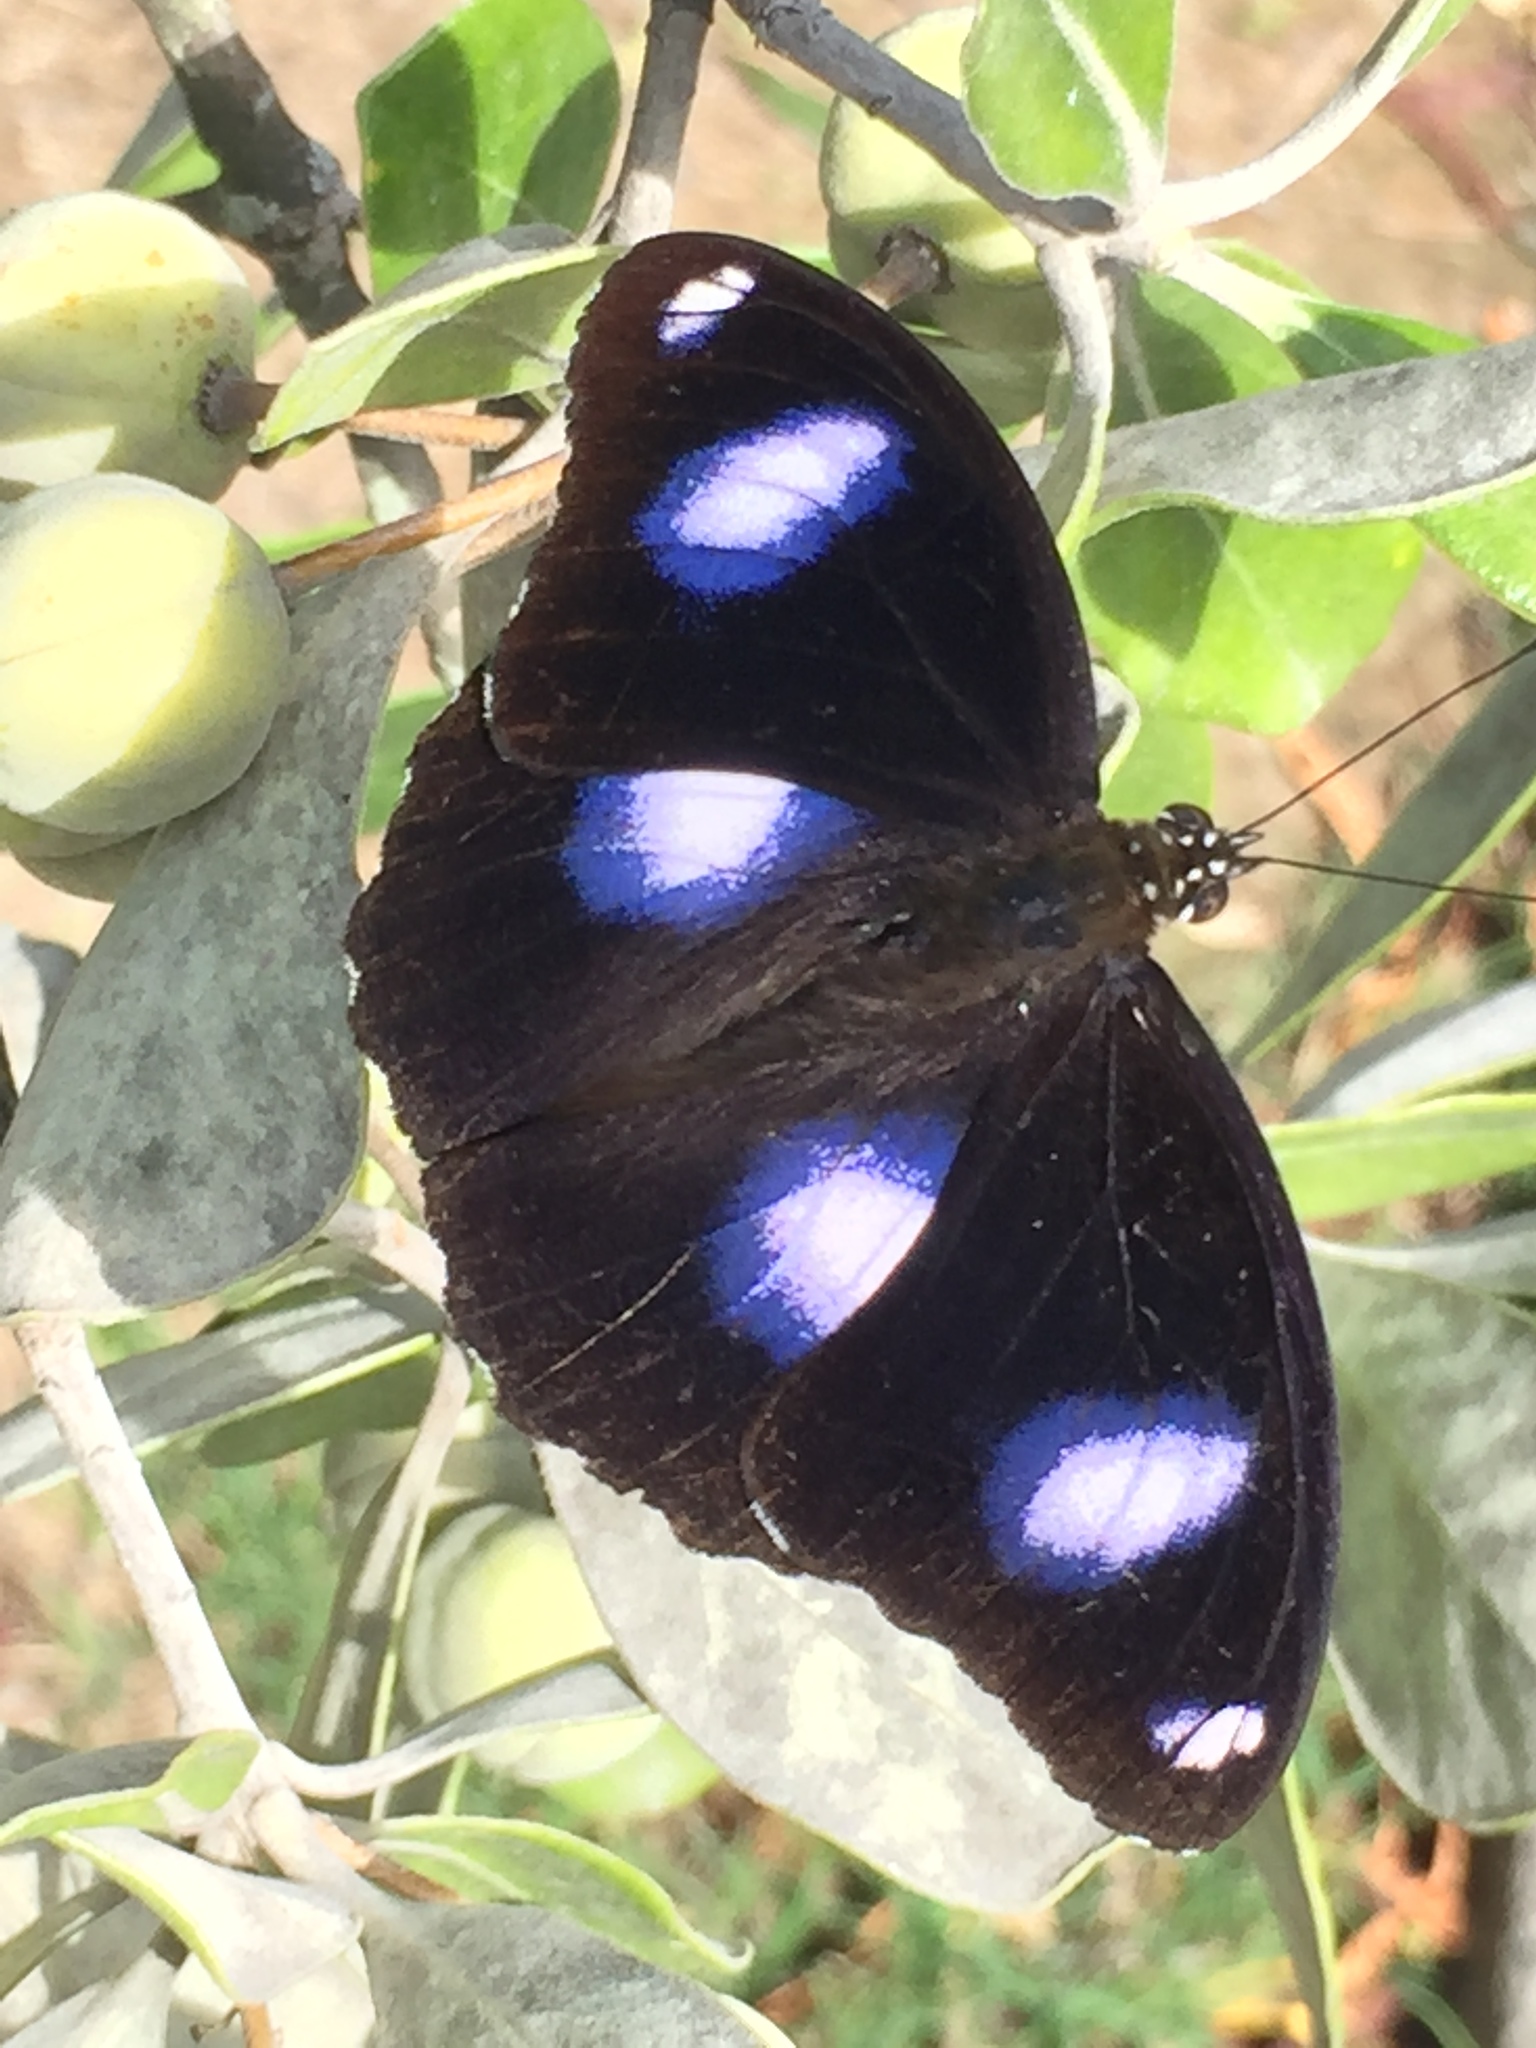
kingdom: Animalia
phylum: Arthropoda
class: Insecta
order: Lepidoptera
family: Nymphalidae
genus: Hypolimnas
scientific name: Hypolimnas bolina
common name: Great eggfly
